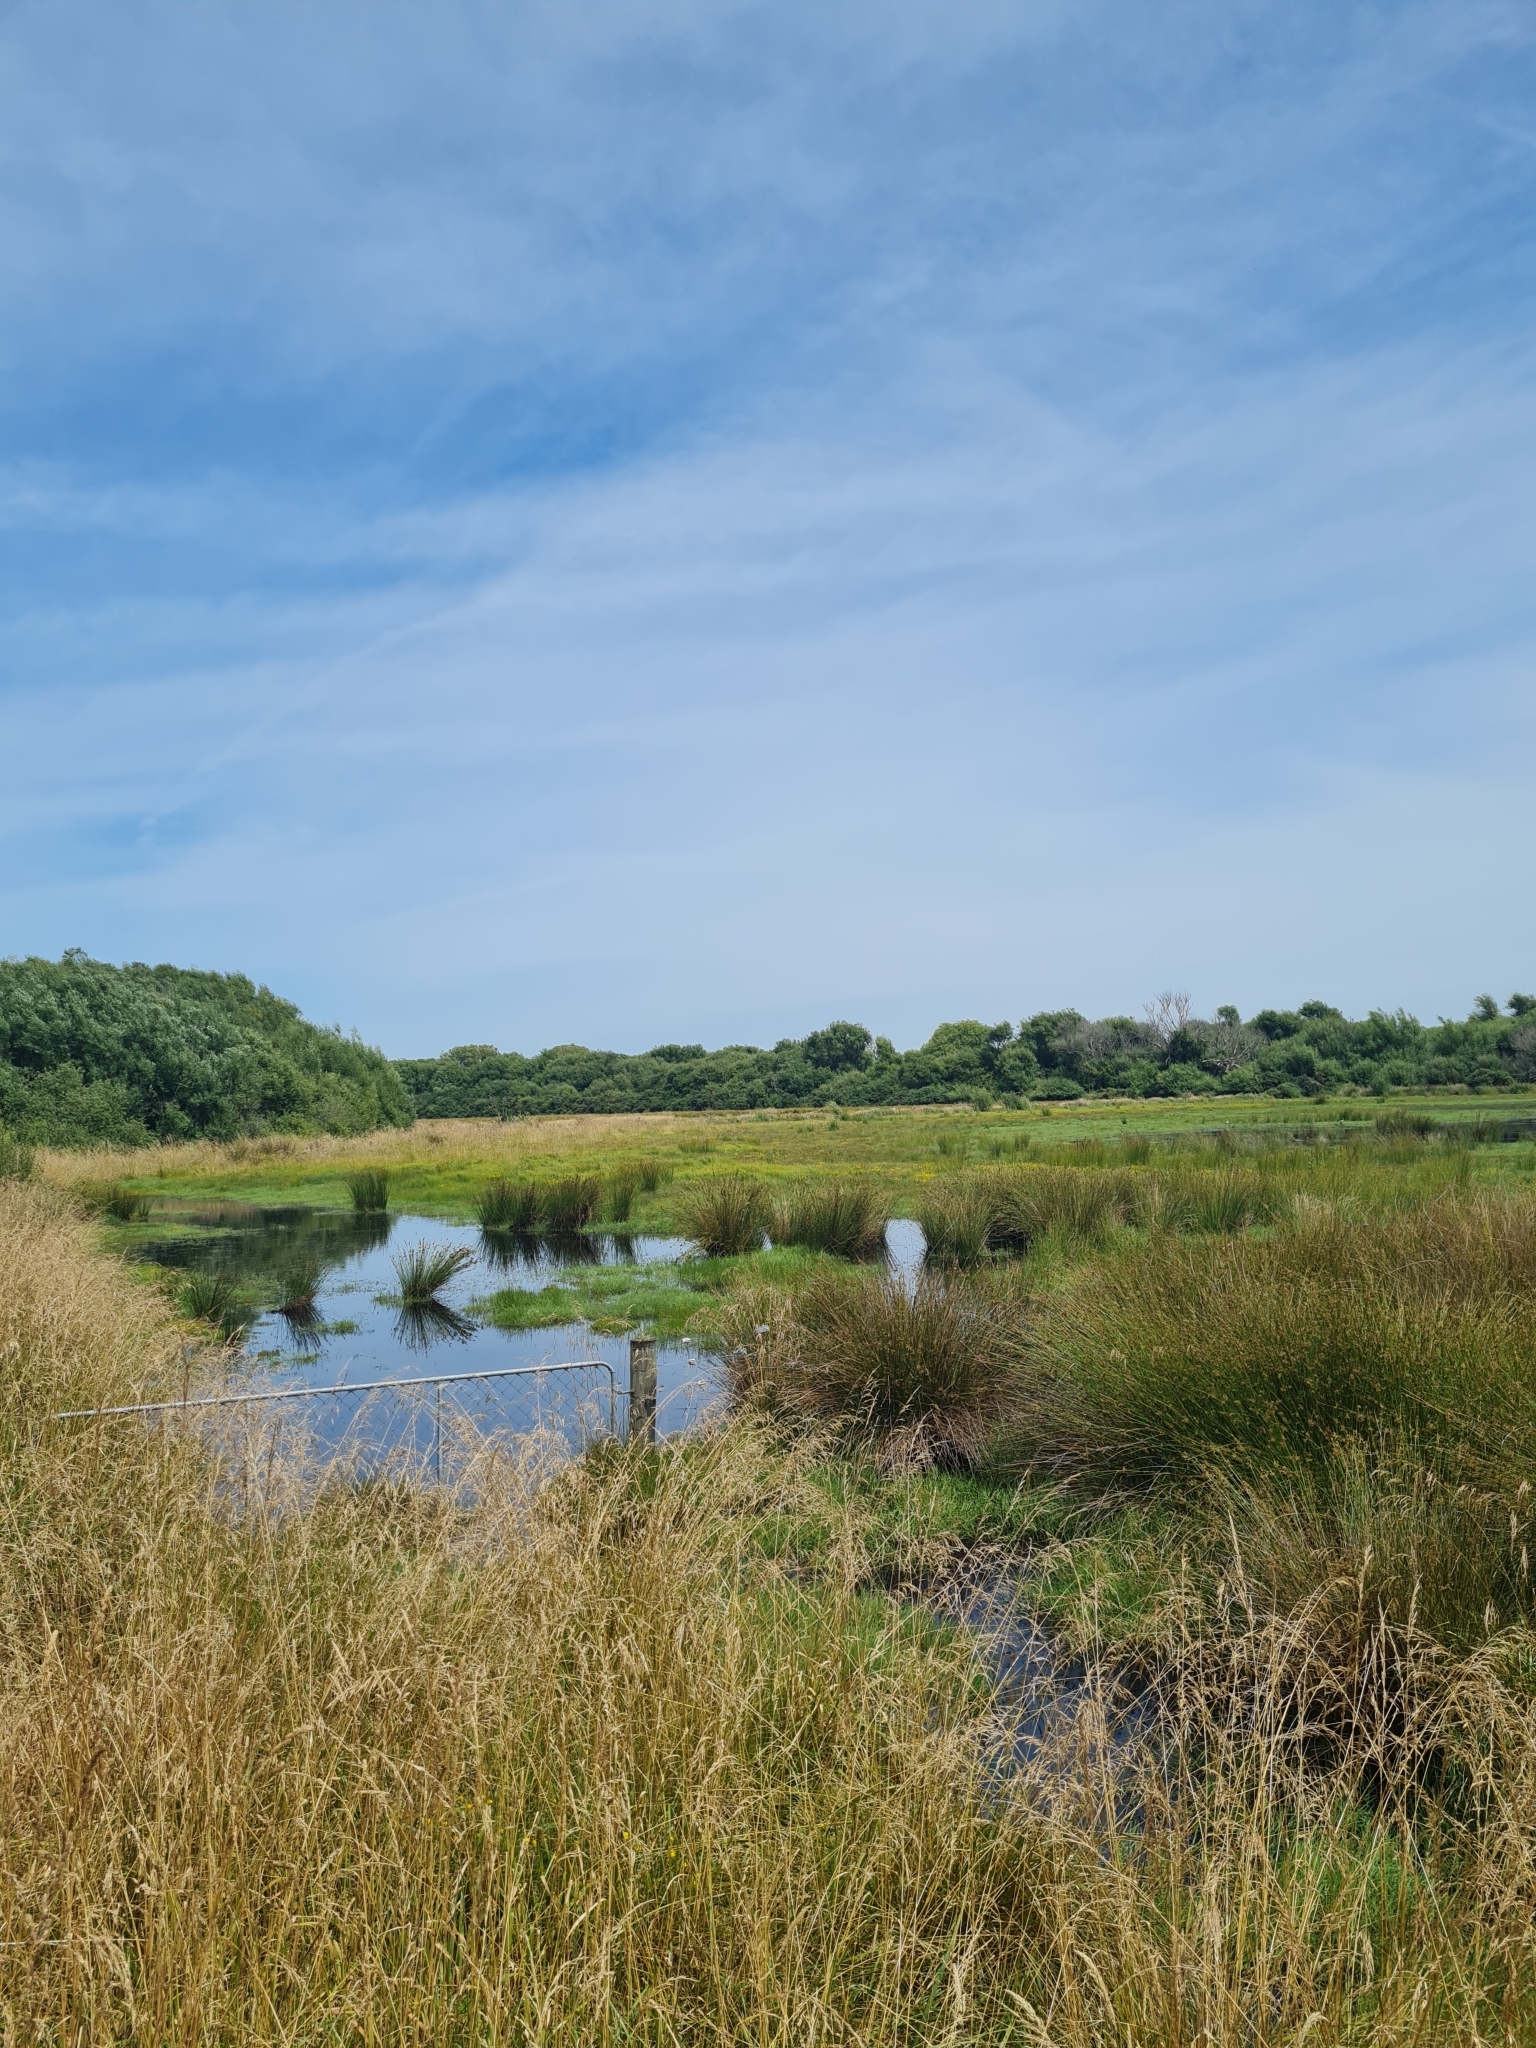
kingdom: Animalia
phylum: Chordata
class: Amphibia
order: Anura
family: Pelodryadidae
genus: Ranoidea
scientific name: Ranoidea raniformis
